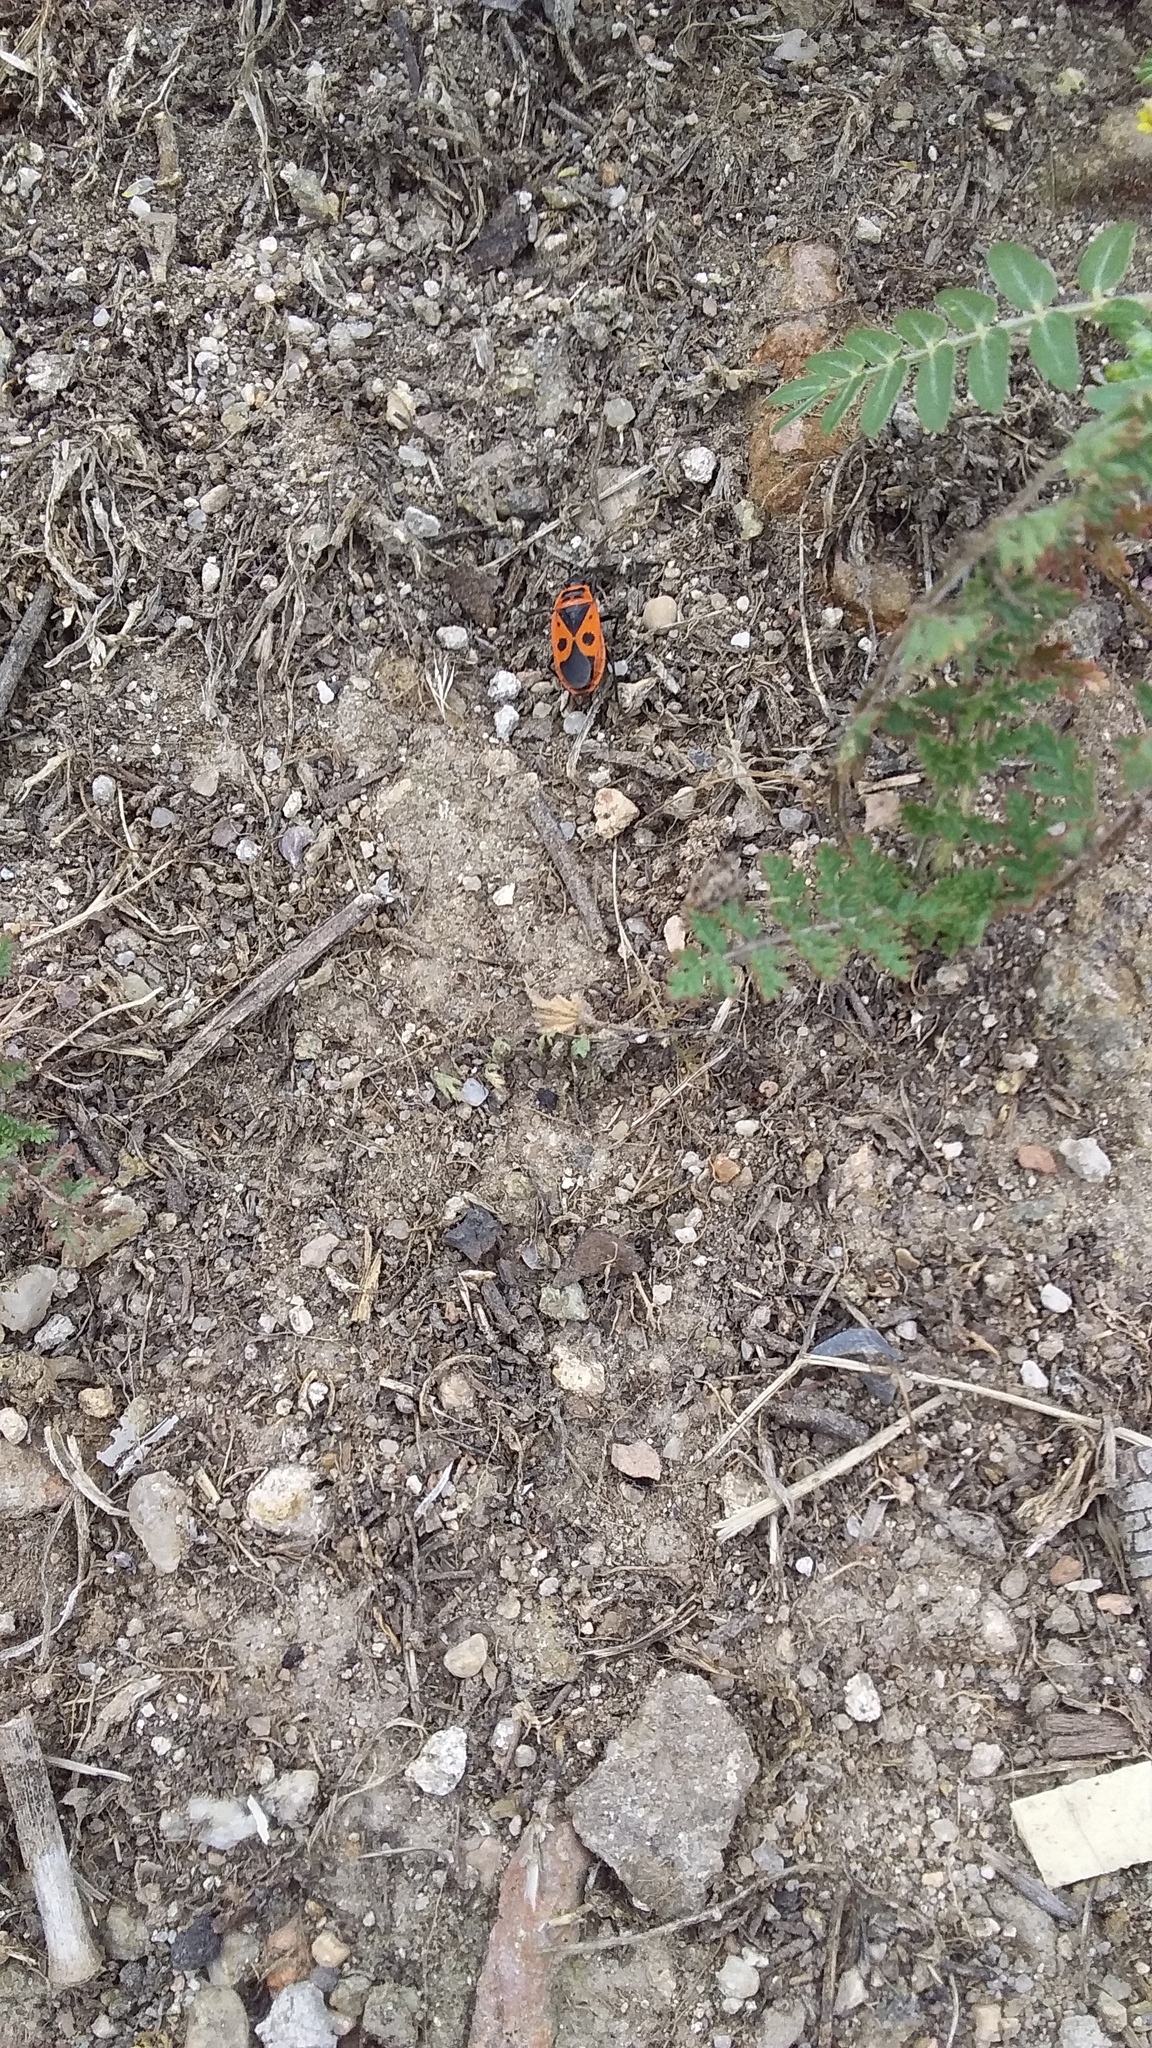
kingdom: Animalia
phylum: Arthropoda
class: Insecta
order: Hemiptera
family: Pyrrhocoridae
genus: Pyrrhocoris
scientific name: Pyrrhocoris apterus
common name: Firebug
